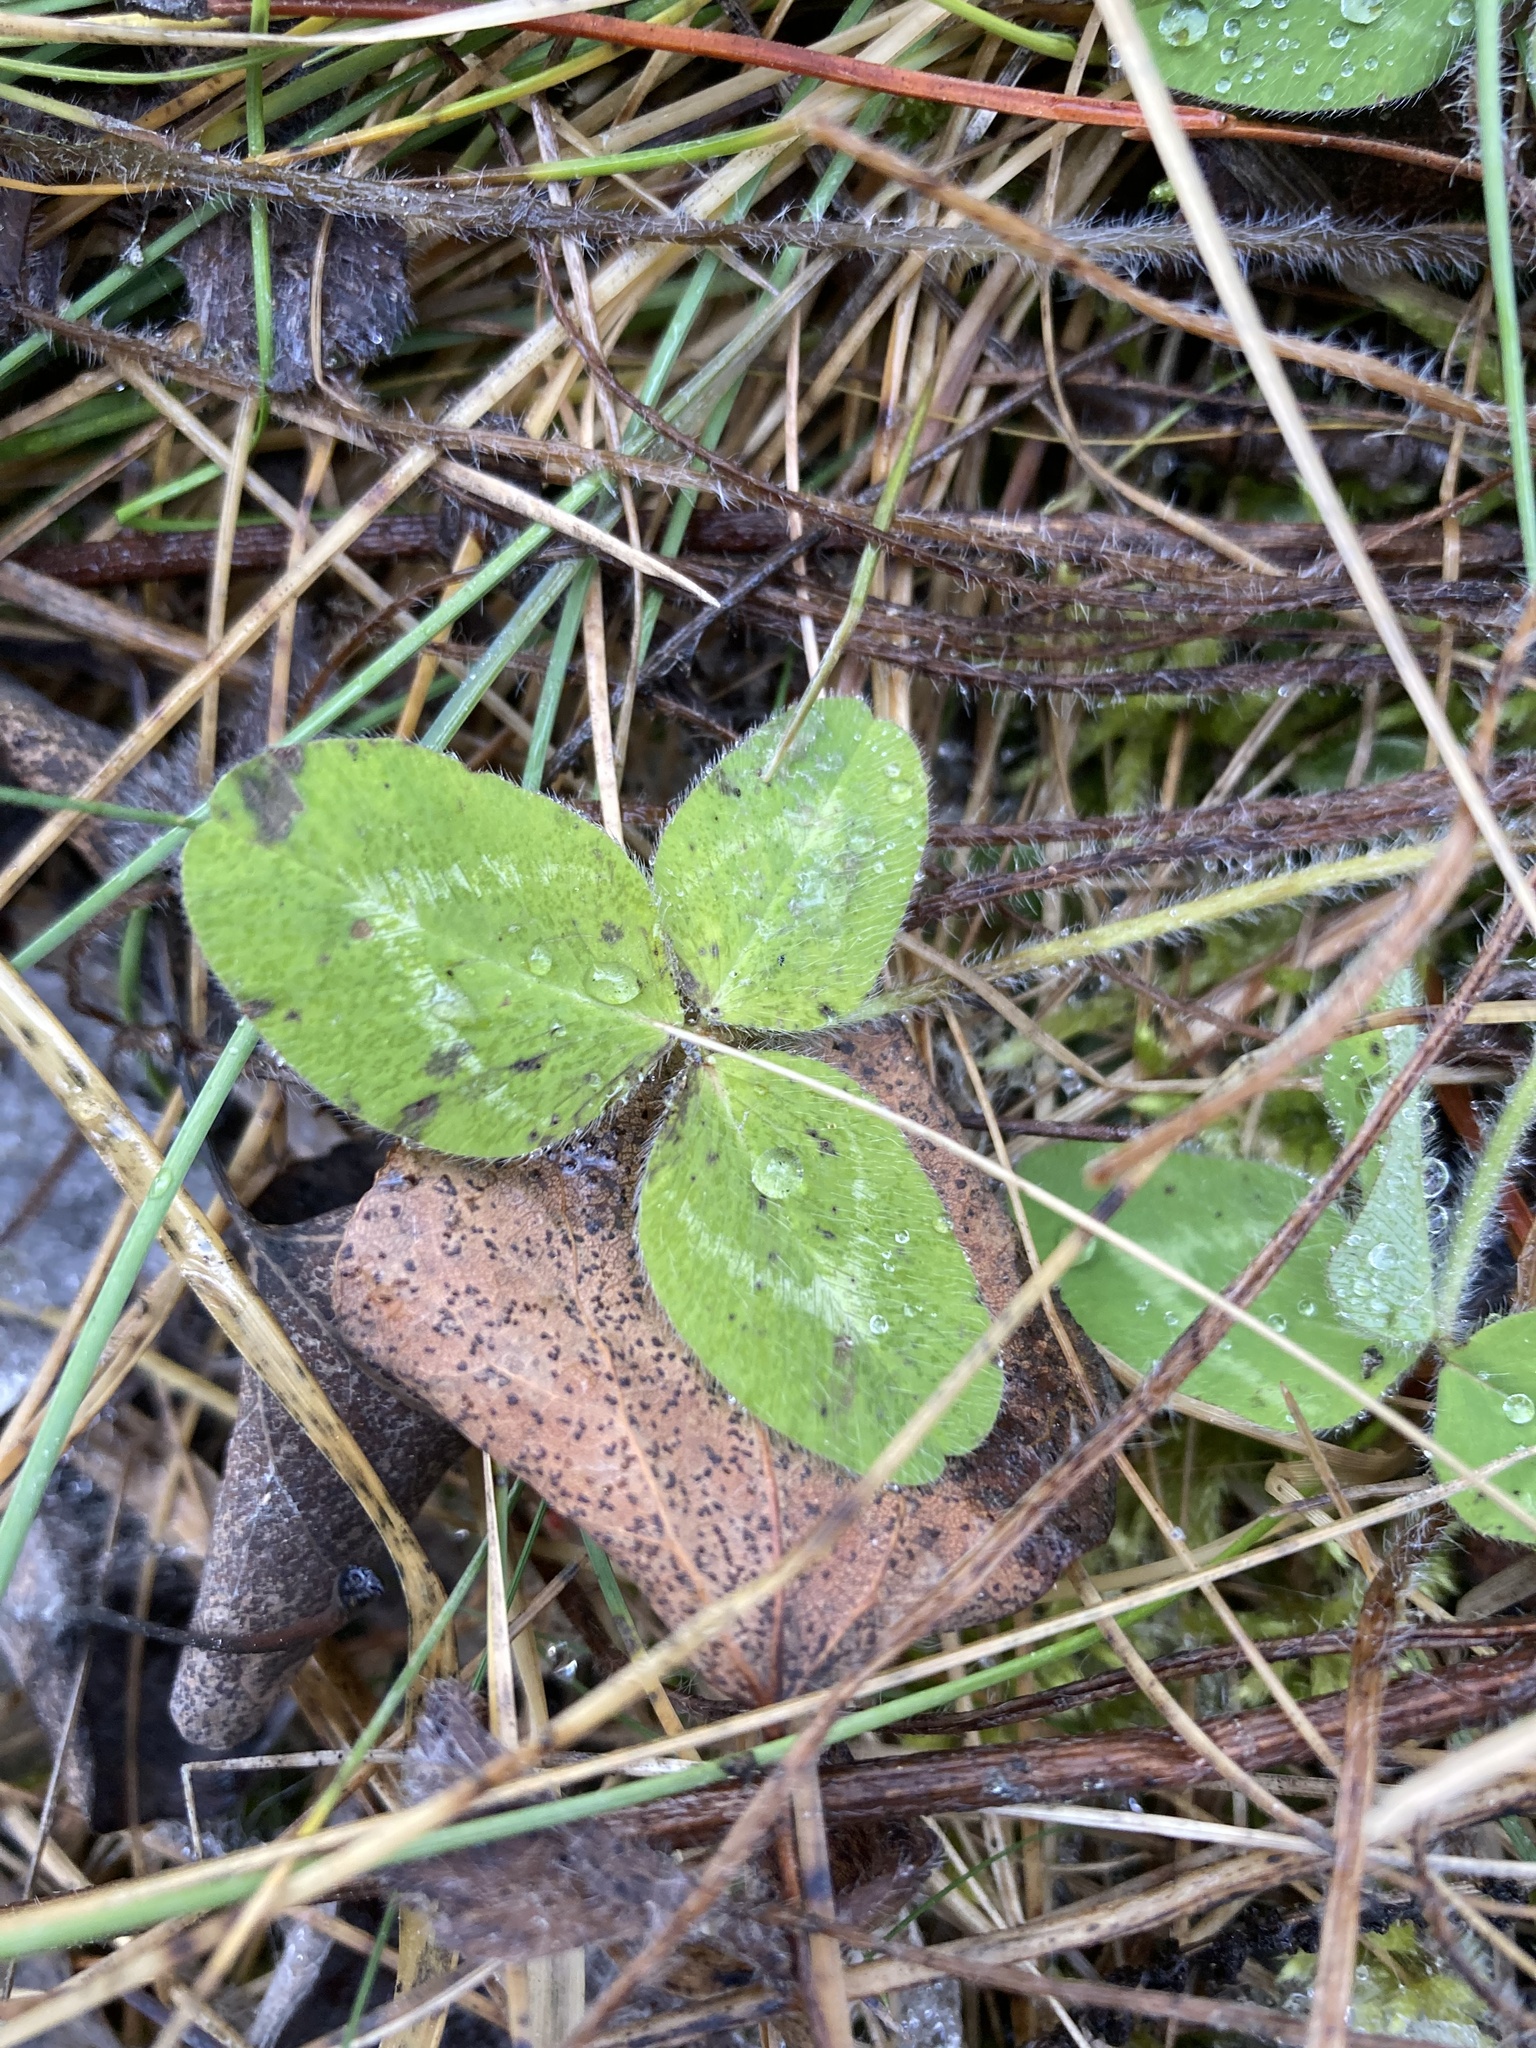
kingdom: Plantae
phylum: Tracheophyta
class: Magnoliopsida
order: Fabales
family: Fabaceae
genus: Trifolium
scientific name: Trifolium pratense
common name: Red clover
